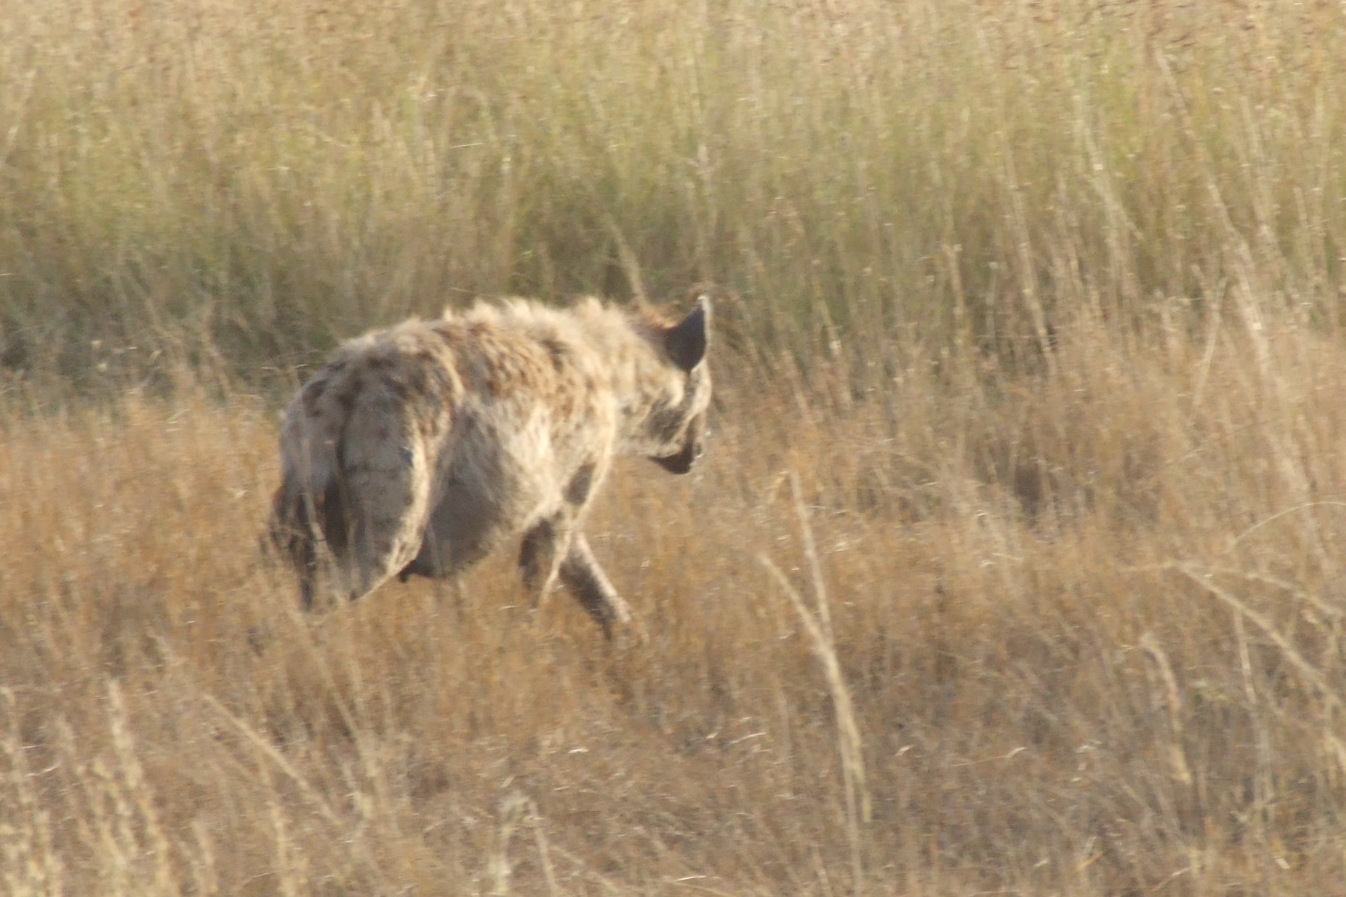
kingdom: Animalia
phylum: Chordata
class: Mammalia
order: Carnivora
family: Hyaenidae
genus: Crocuta
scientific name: Crocuta crocuta
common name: Spotted hyaena
